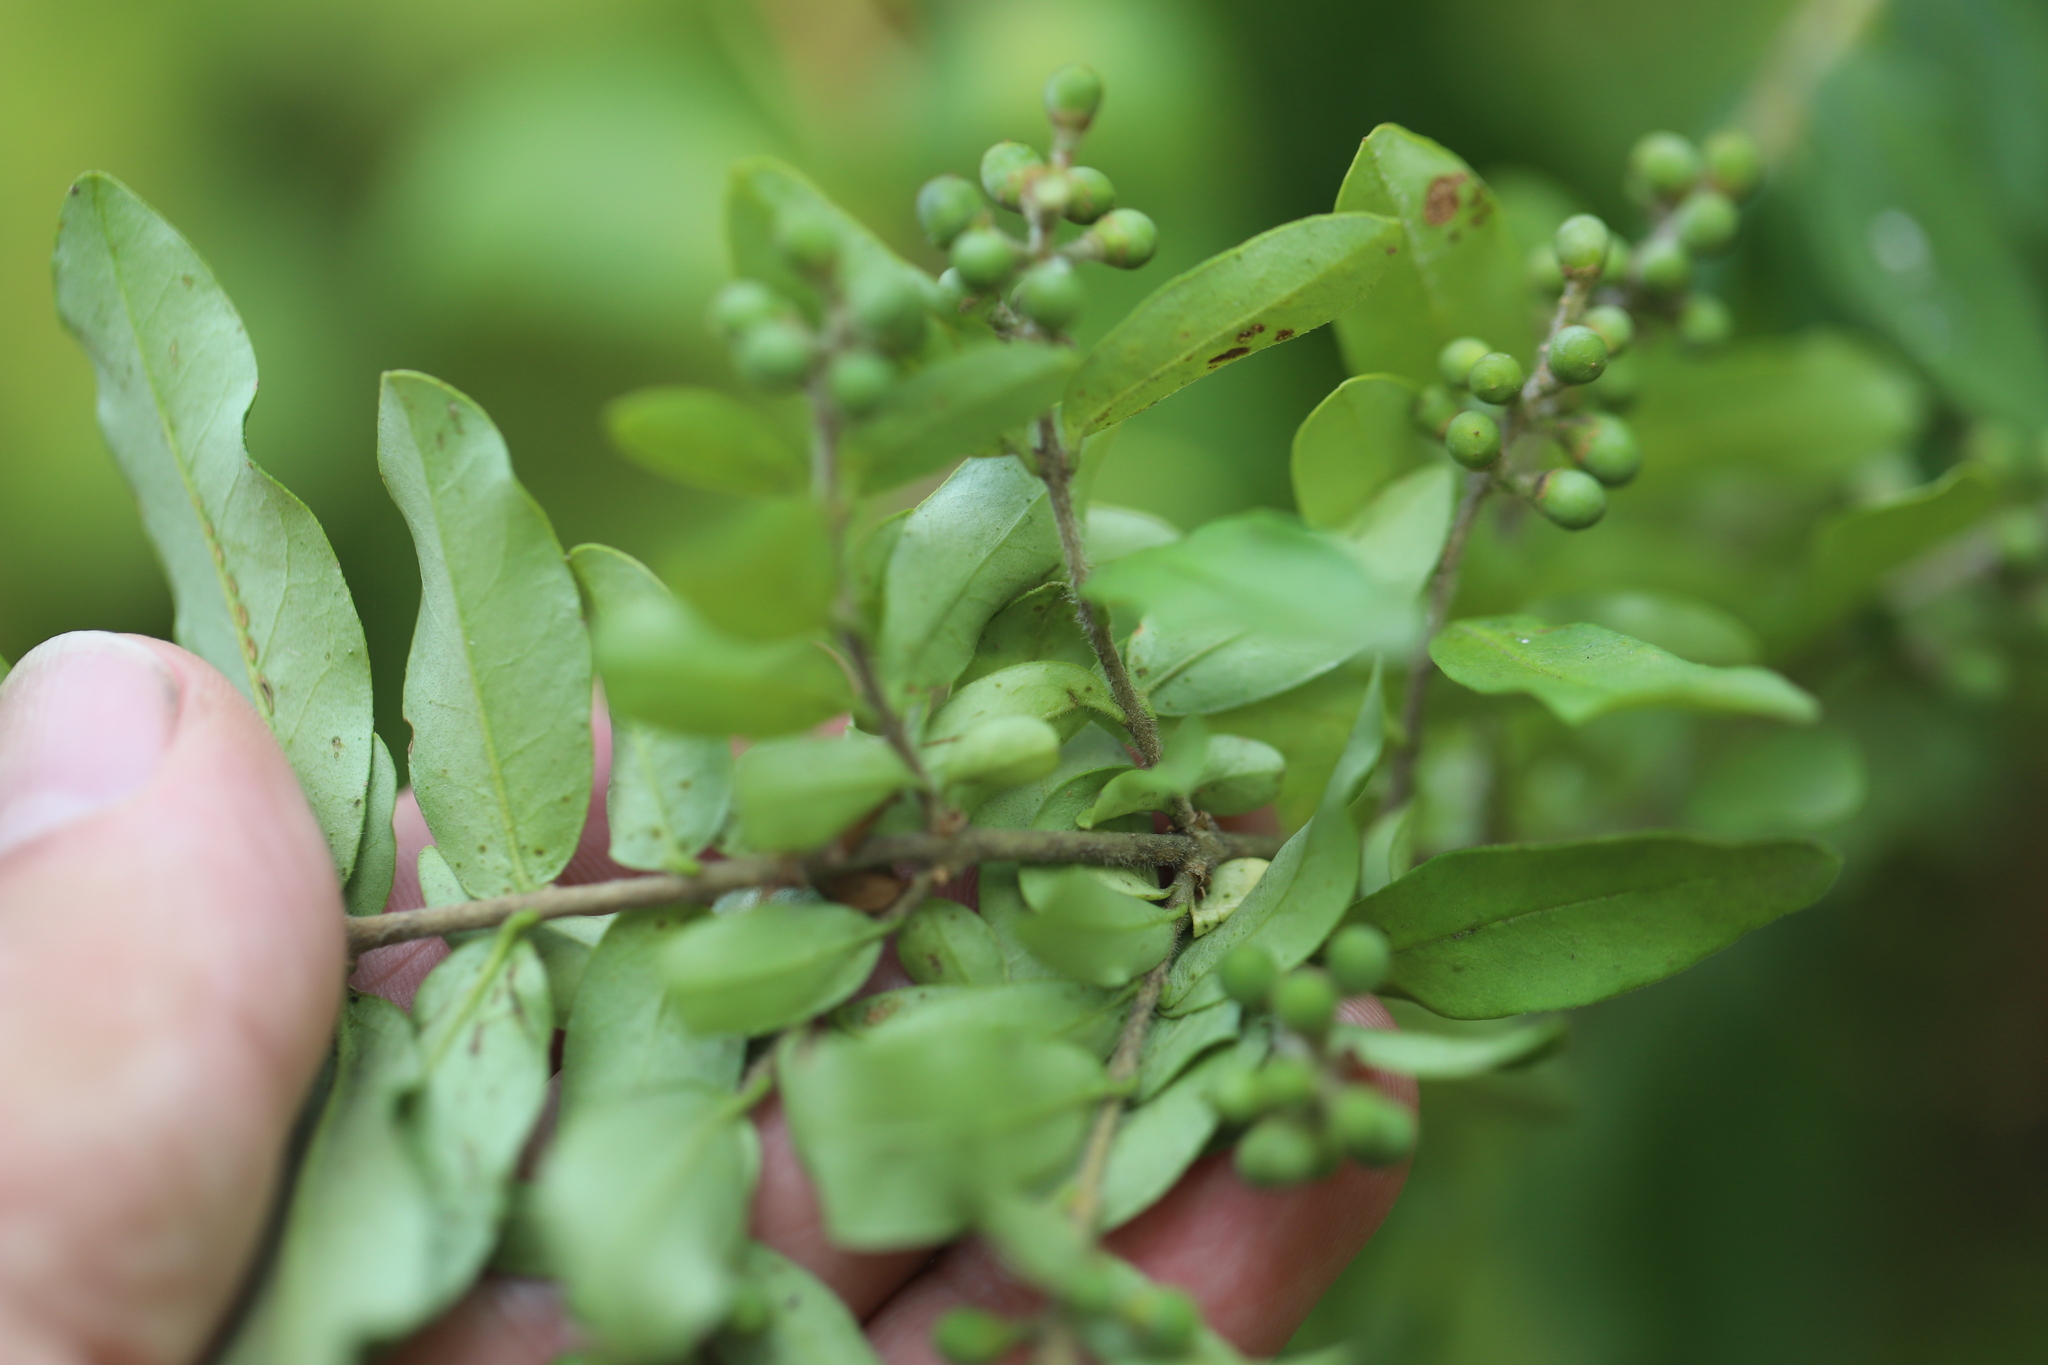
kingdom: Plantae
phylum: Tracheophyta
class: Magnoliopsida
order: Lamiales
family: Oleaceae
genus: Ligustrum
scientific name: Ligustrum obtusifolium
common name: Border privet
